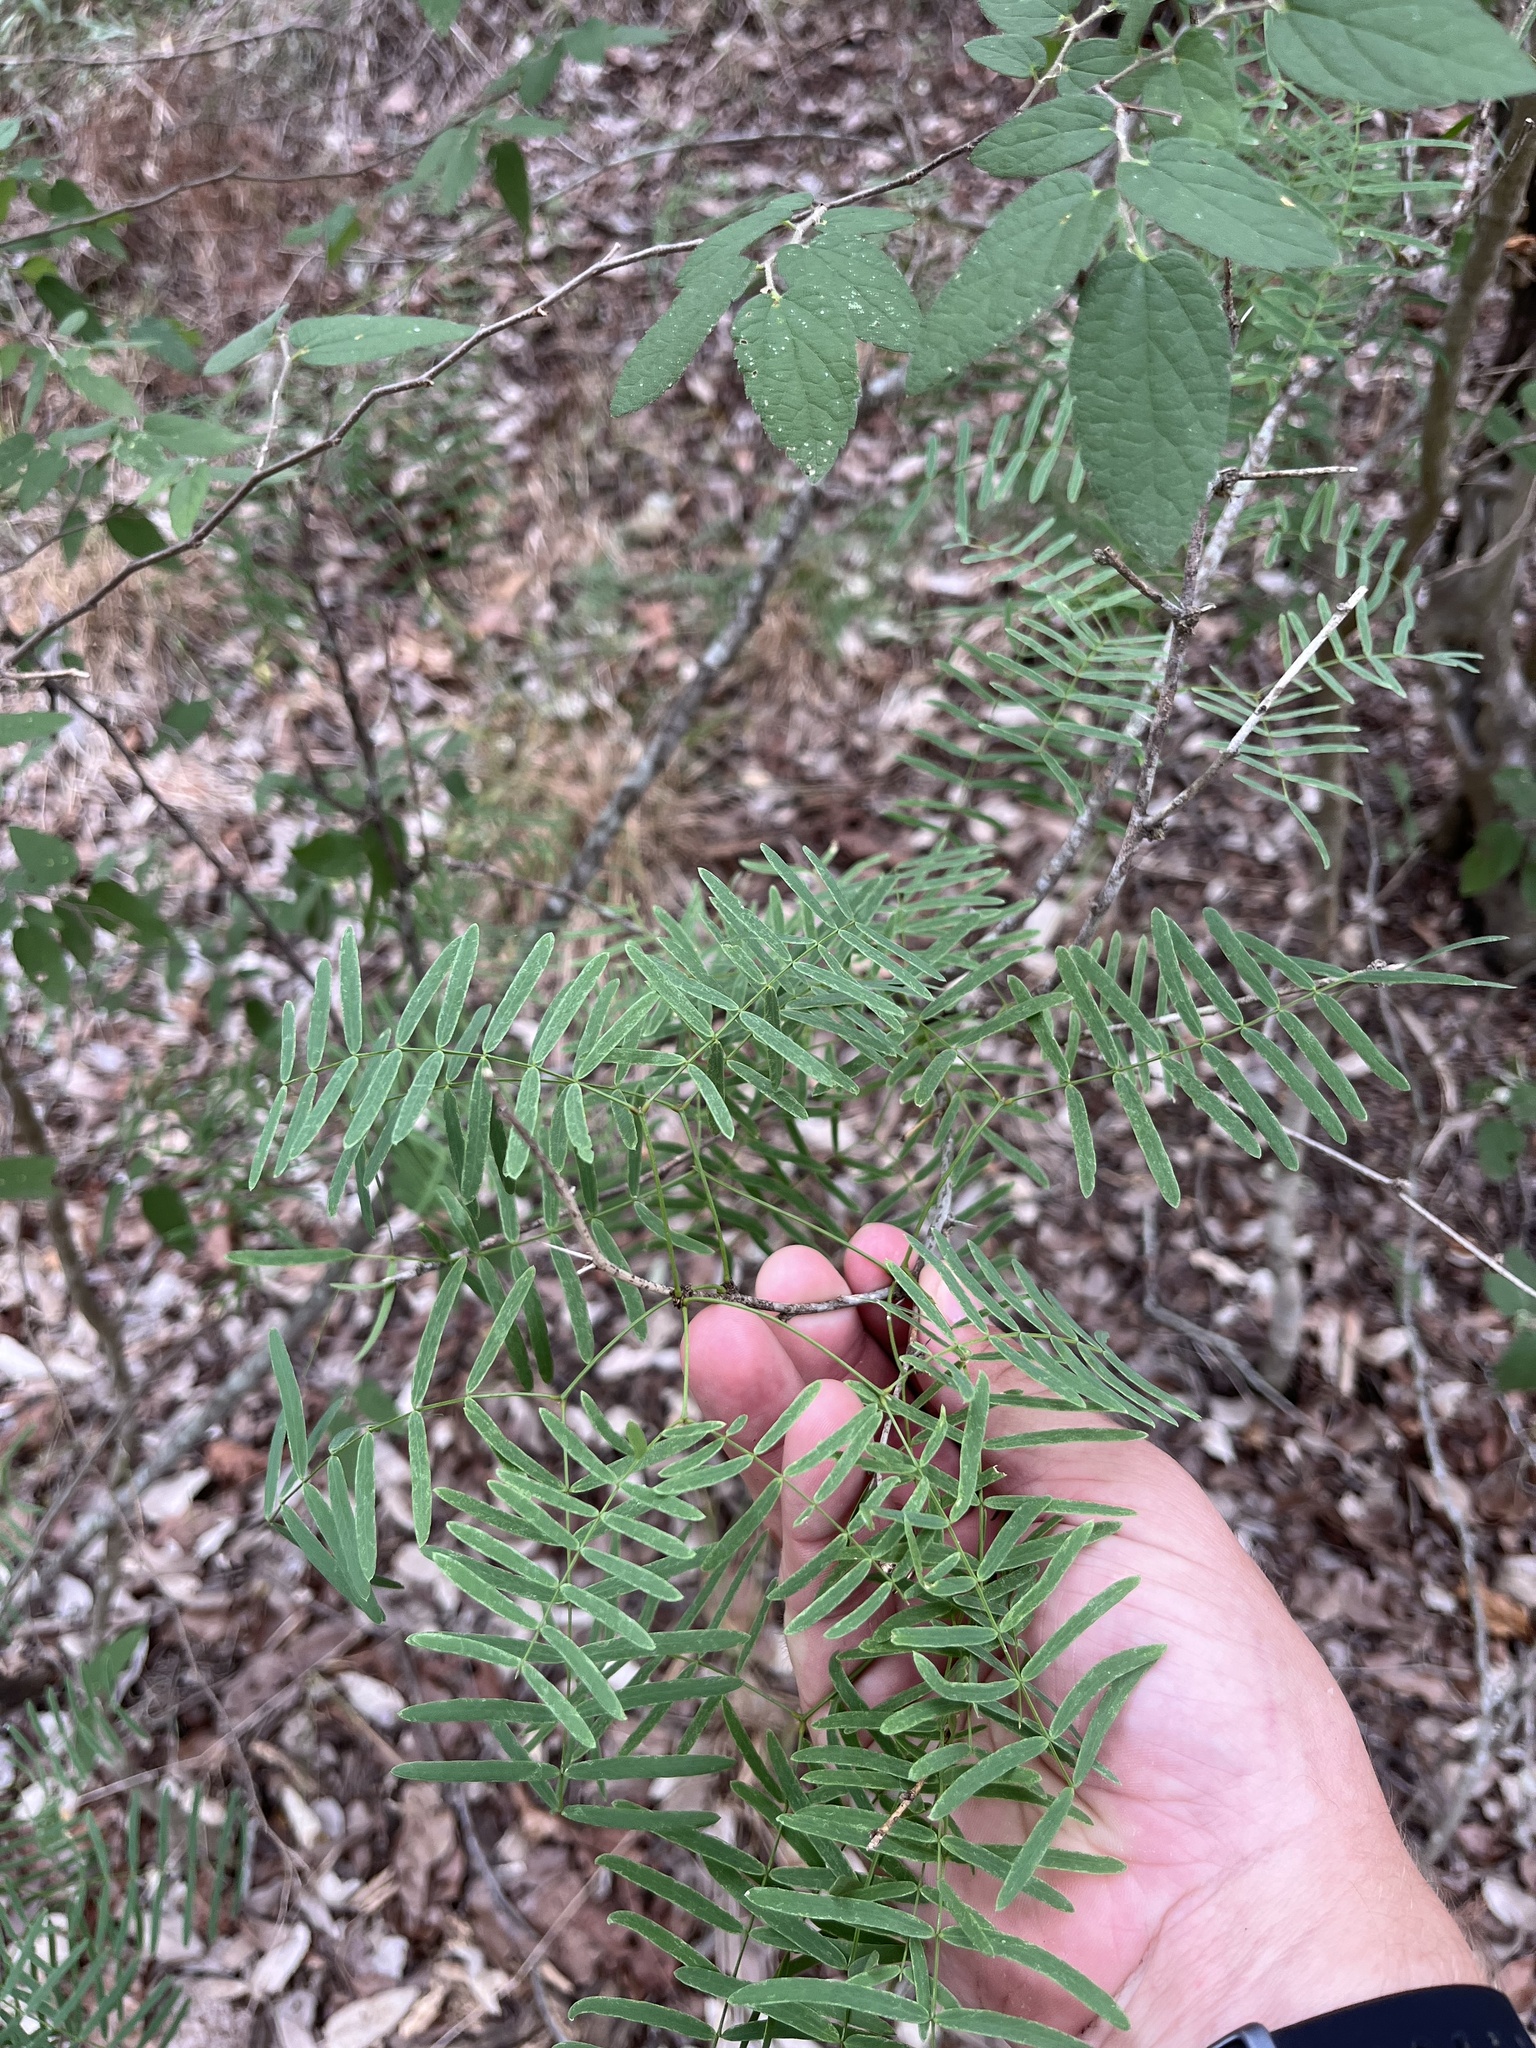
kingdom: Plantae
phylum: Tracheophyta
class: Magnoliopsida
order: Fabales
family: Fabaceae
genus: Prosopis
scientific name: Prosopis glandulosa
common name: Honey mesquite
